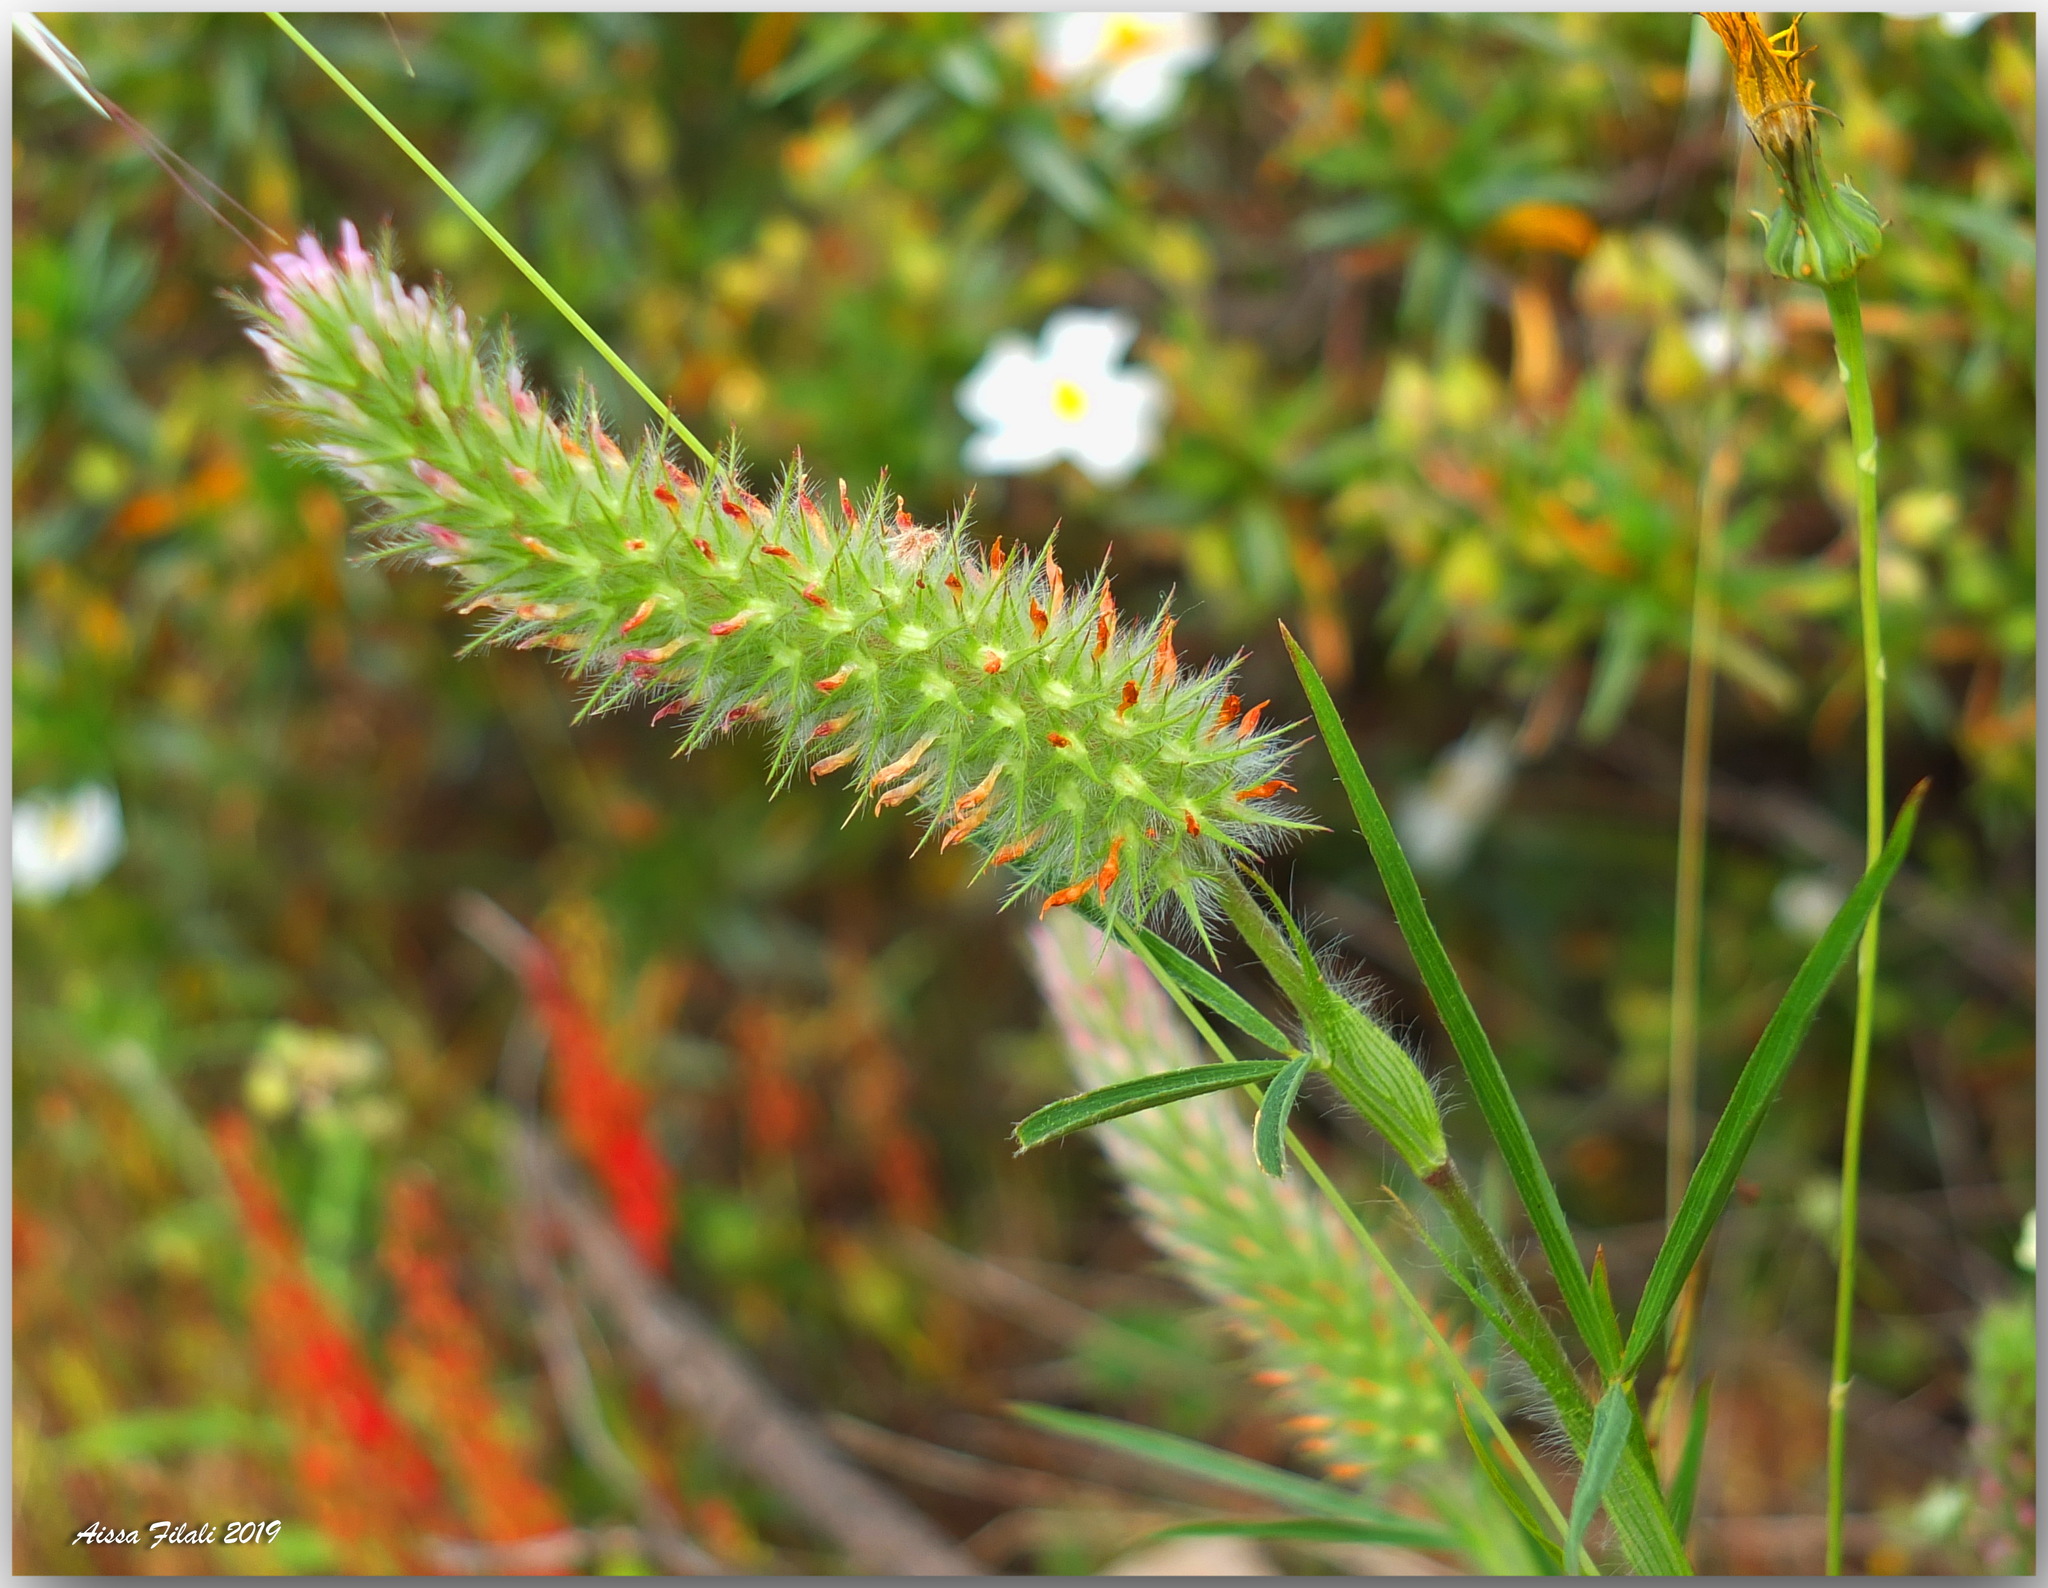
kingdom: Plantae
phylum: Tracheophyta
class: Magnoliopsida
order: Fabales
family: Fabaceae
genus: Trifolium
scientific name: Trifolium angustifolium
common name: Narrow clover
